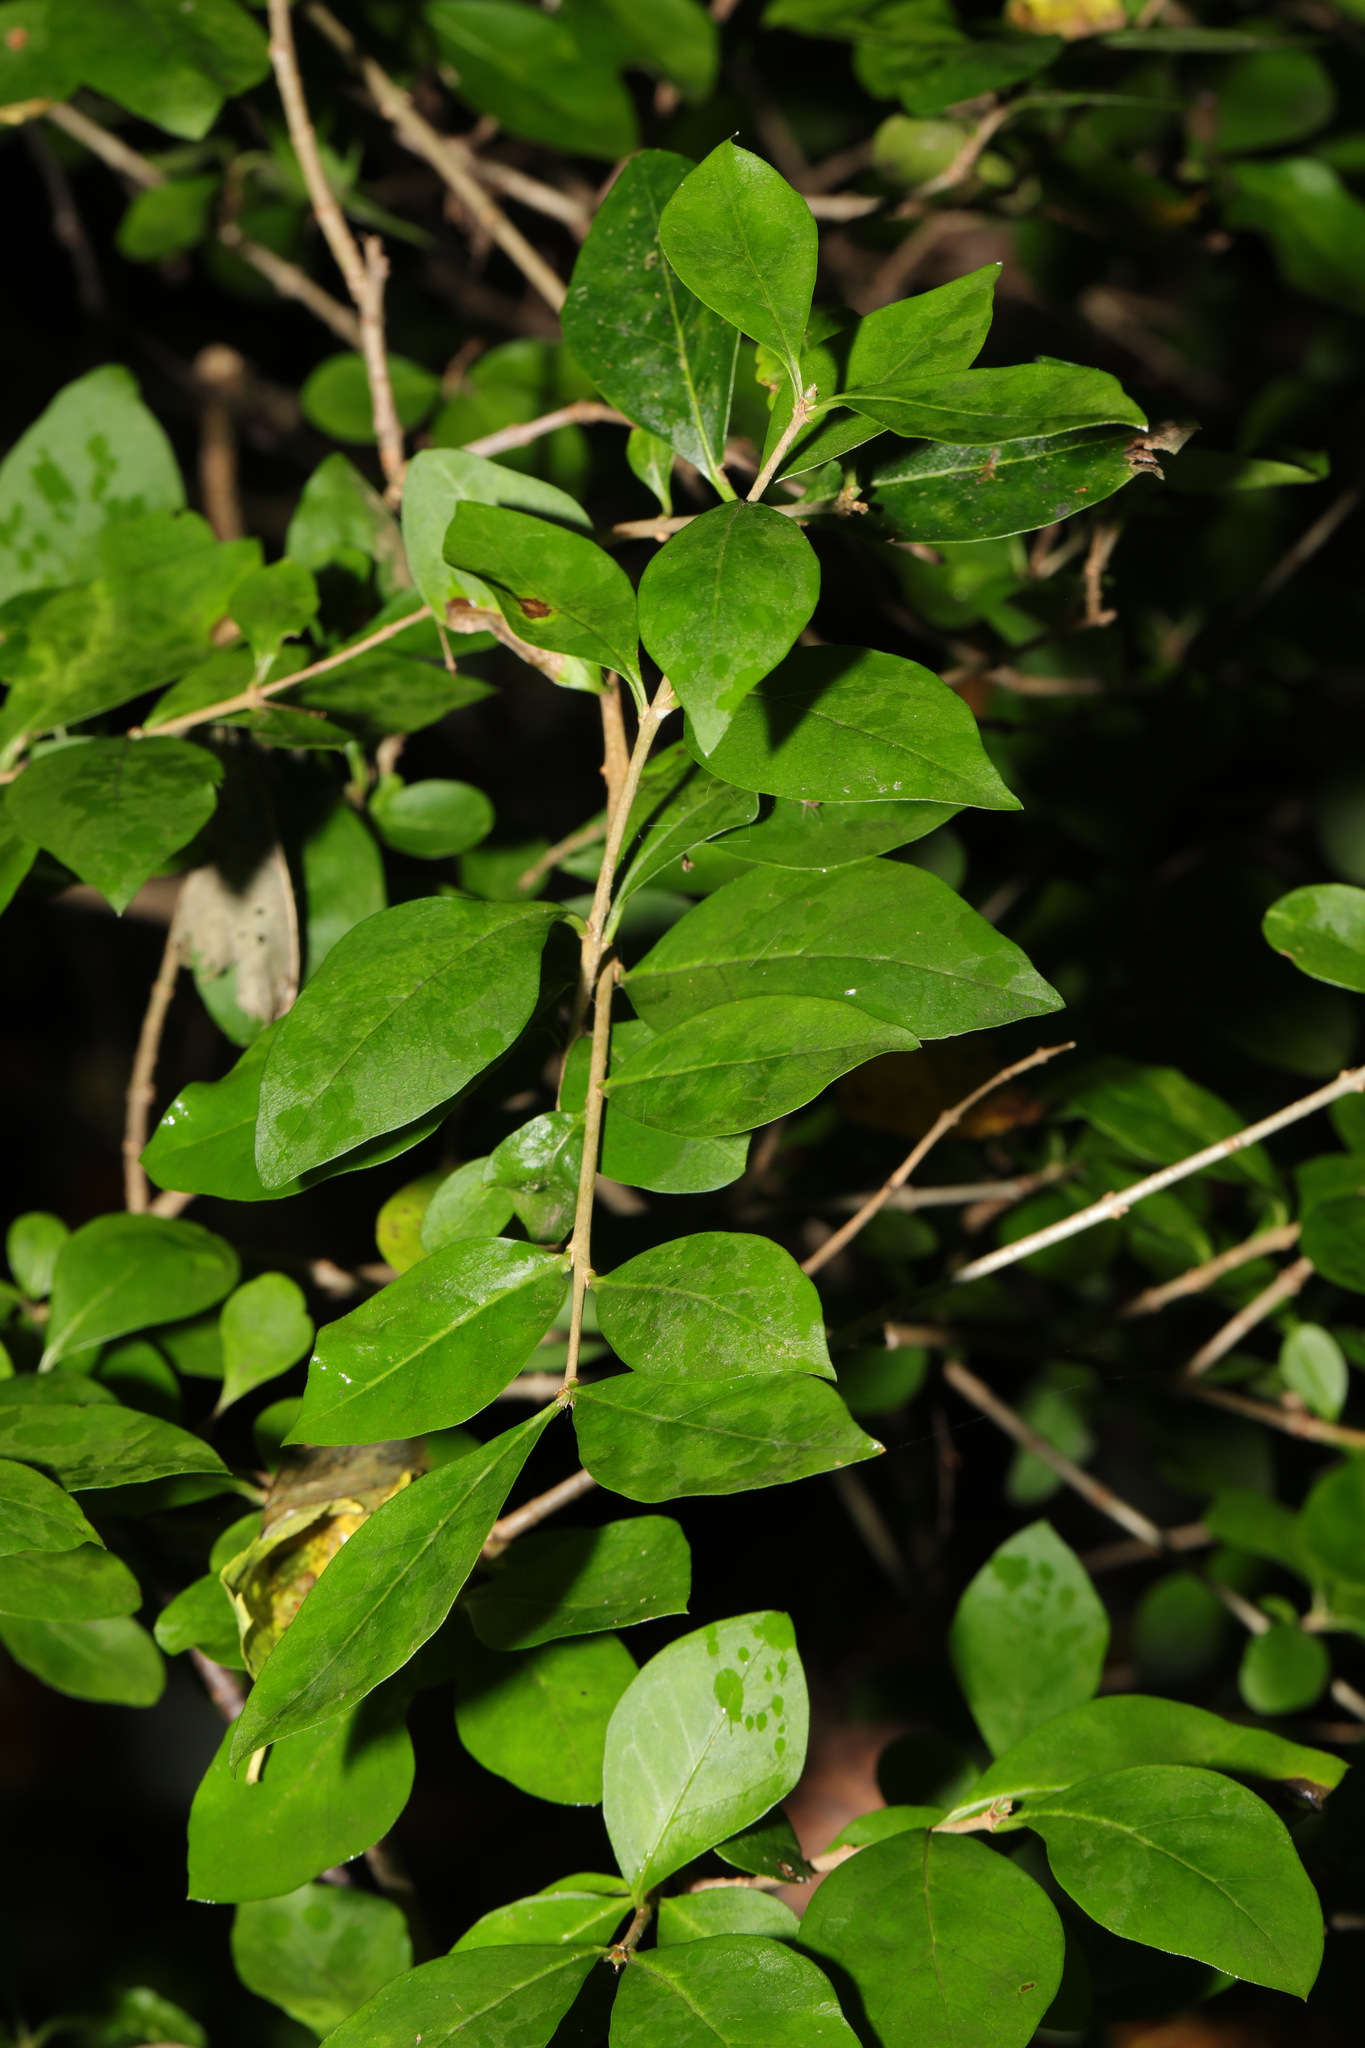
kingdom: Plantae
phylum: Tracheophyta
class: Magnoliopsida
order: Lamiales
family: Oleaceae
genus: Ligustrum
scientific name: Ligustrum ovalifolium
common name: California privet
